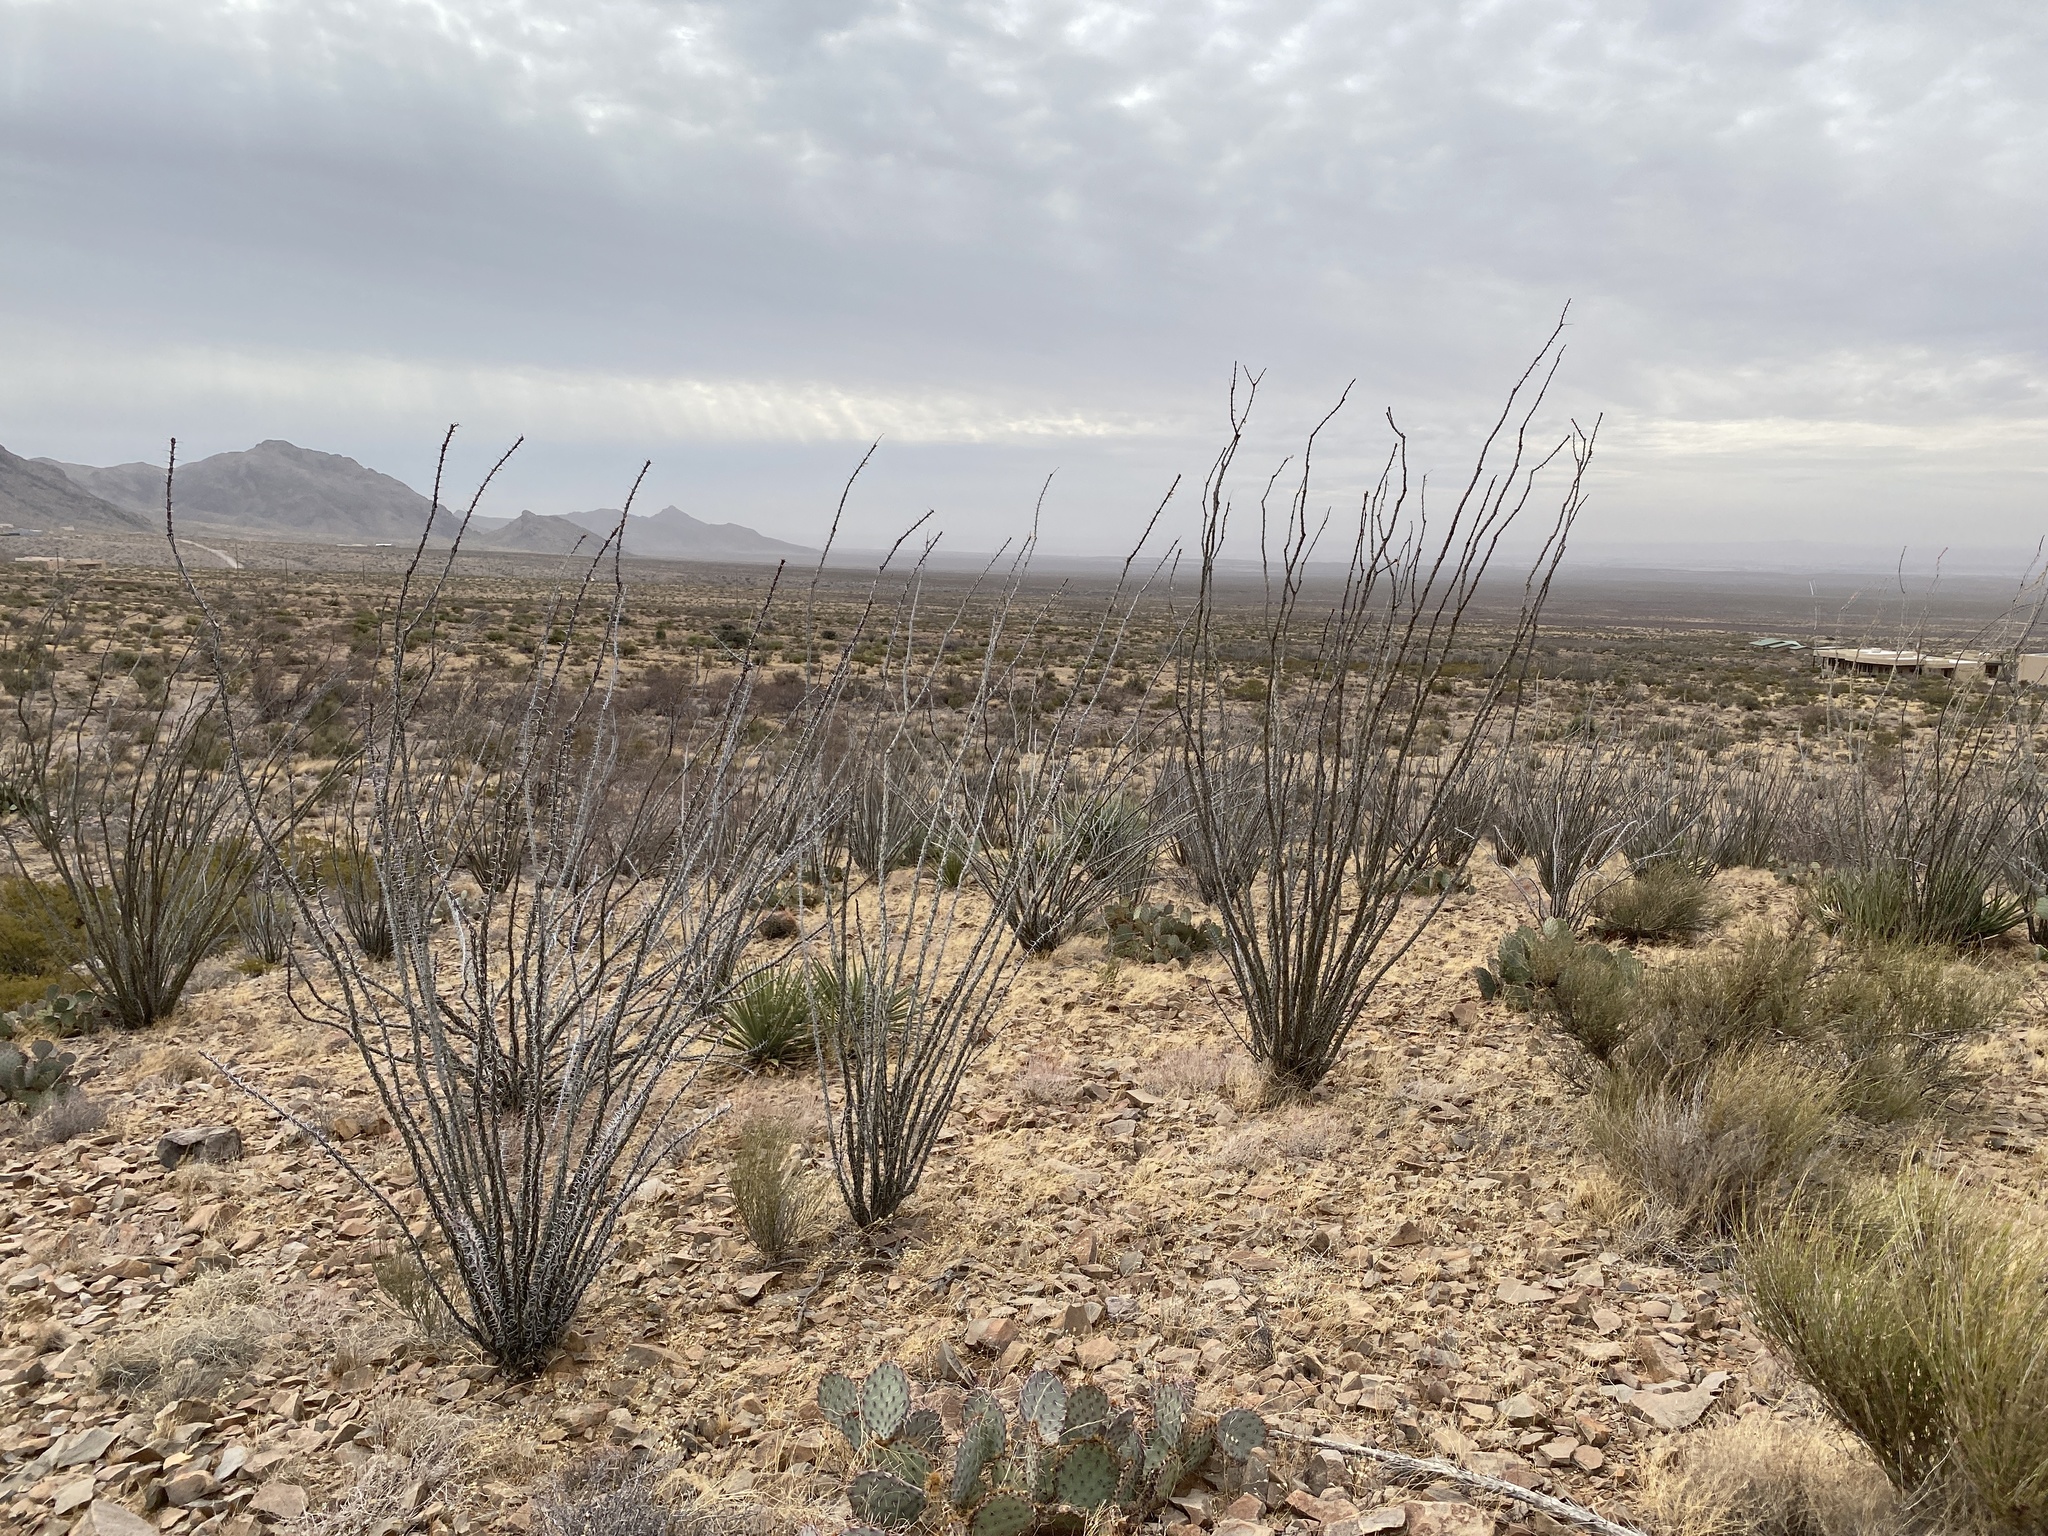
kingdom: Plantae
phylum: Tracheophyta
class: Magnoliopsida
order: Ericales
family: Fouquieriaceae
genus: Fouquieria
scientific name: Fouquieria splendens
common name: Vine-cactus
